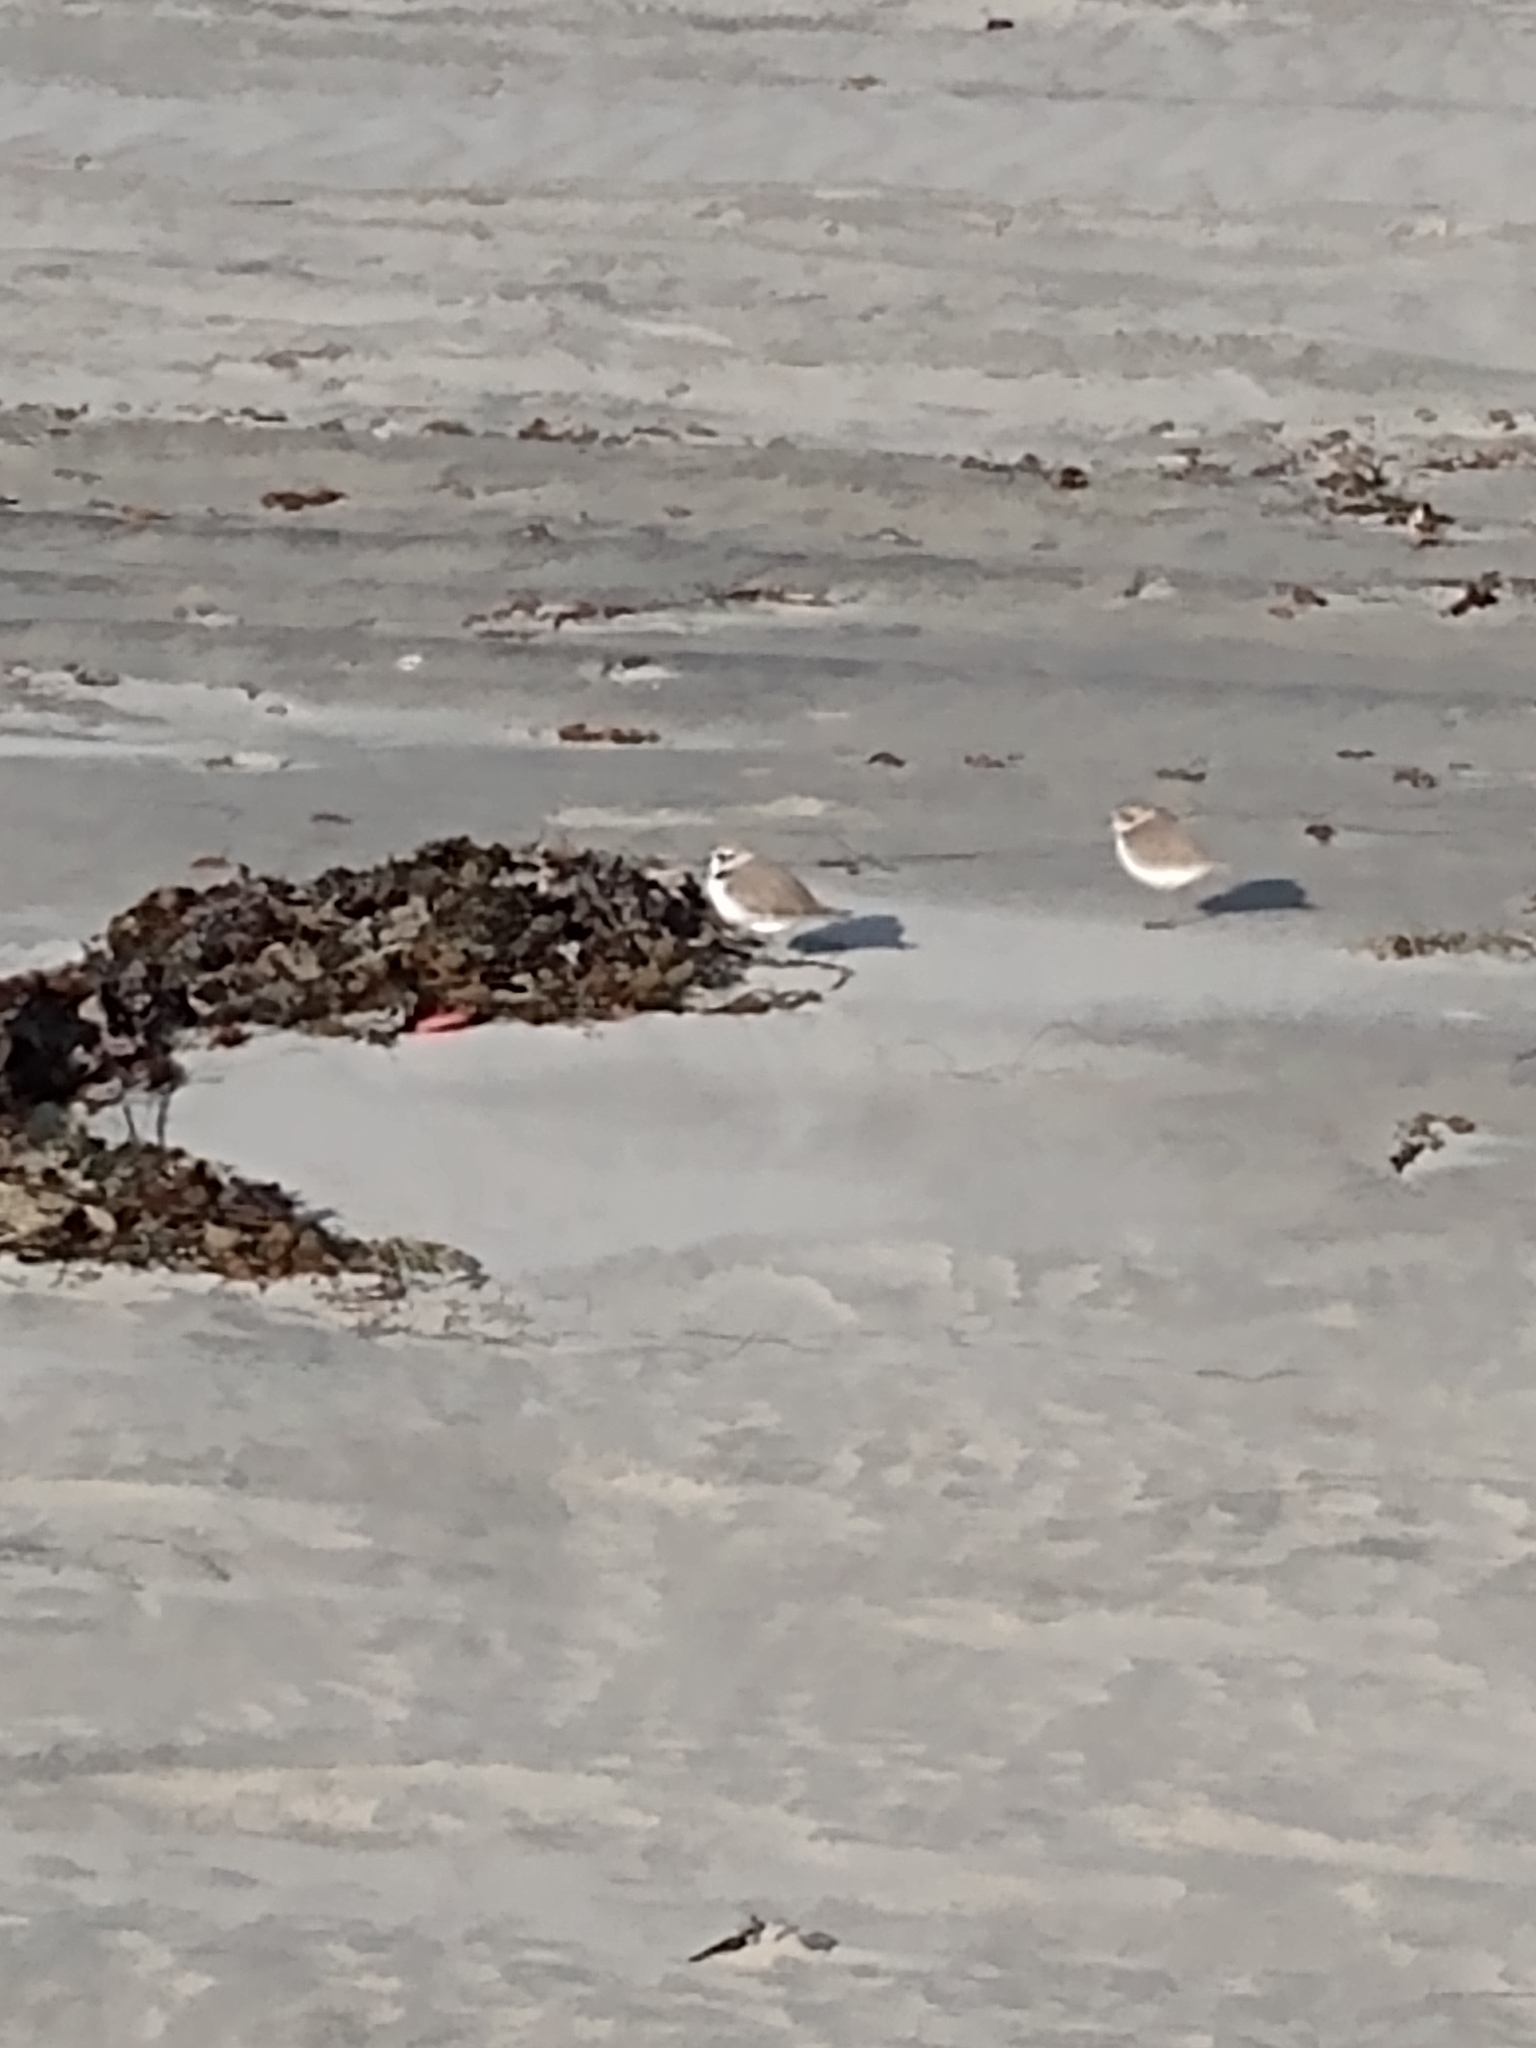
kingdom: Animalia
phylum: Chordata
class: Aves
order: Charadriiformes
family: Charadriidae
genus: Anarhynchus
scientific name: Anarhynchus
